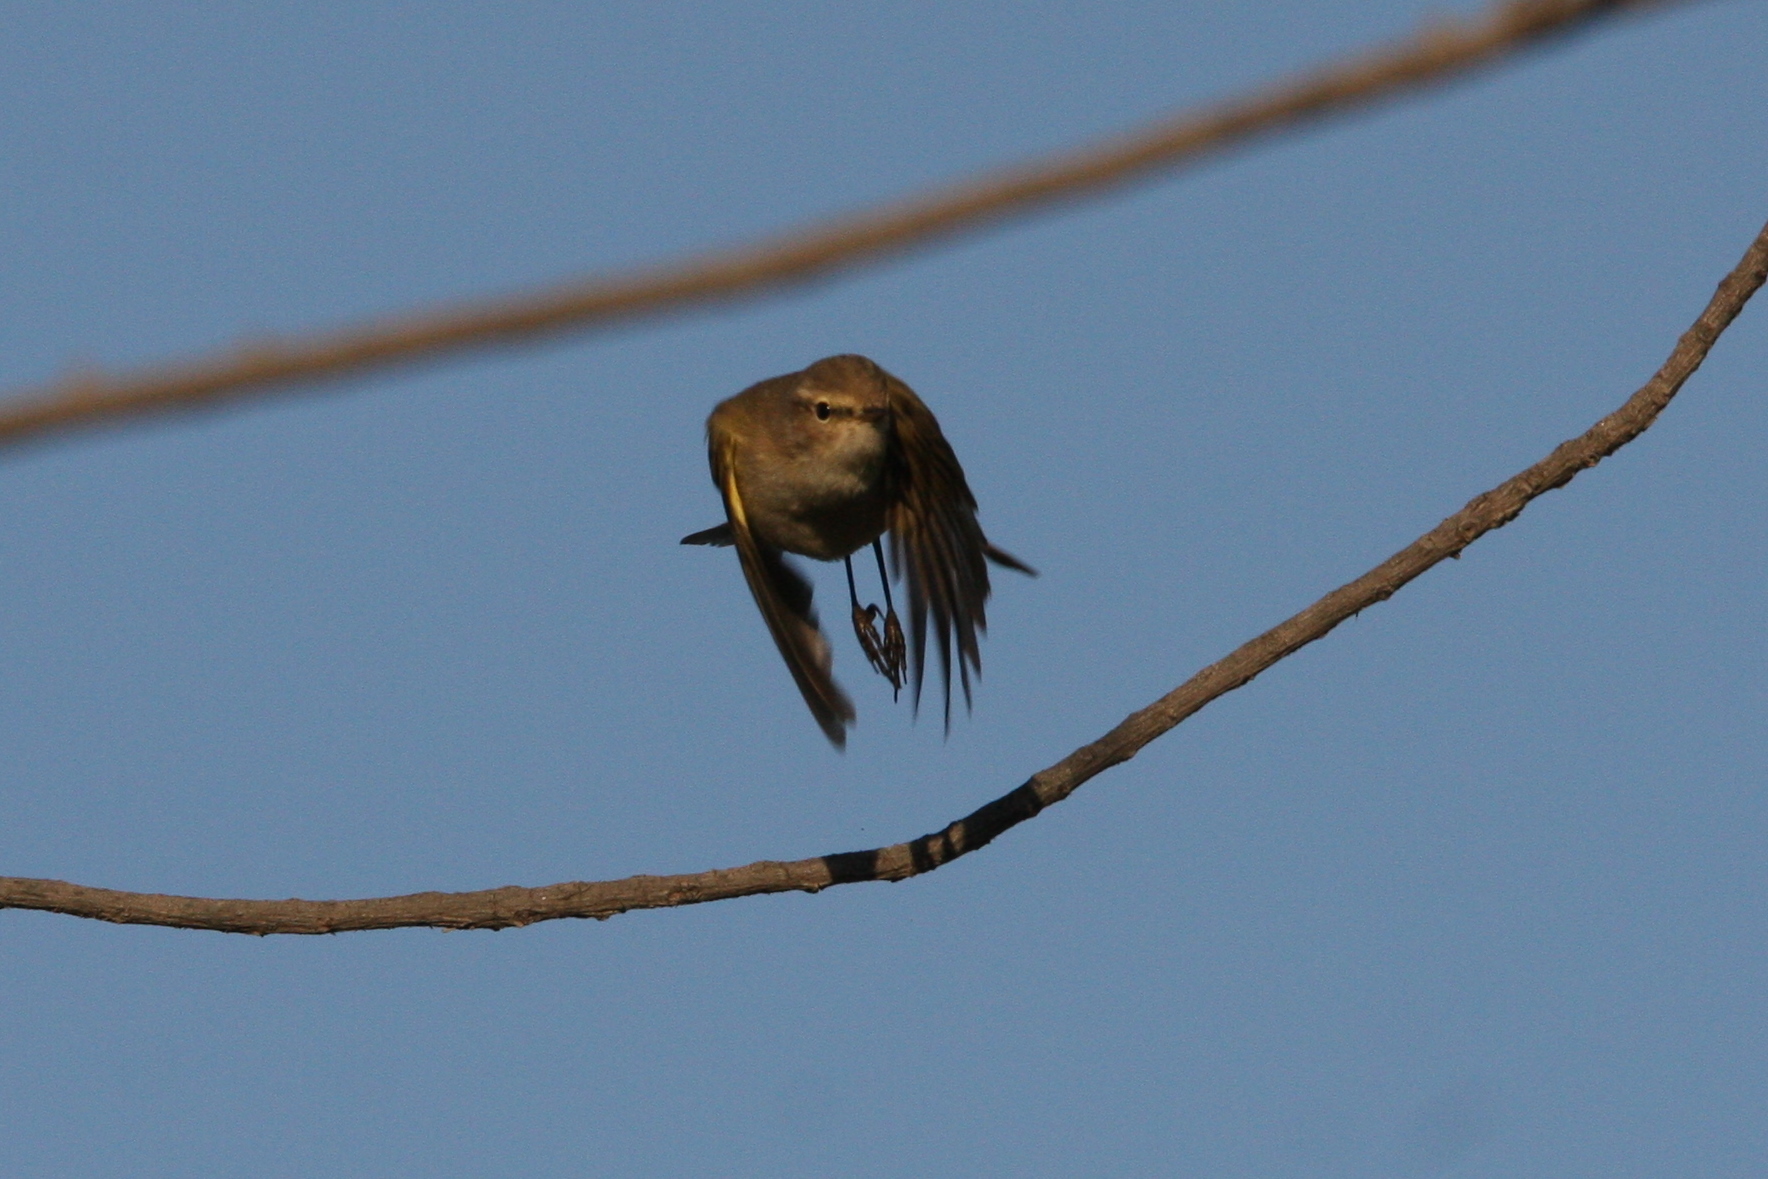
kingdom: Animalia
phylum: Chordata
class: Aves
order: Passeriformes
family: Phylloscopidae
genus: Phylloscopus
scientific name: Phylloscopus collybita
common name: Common chiffchaff
